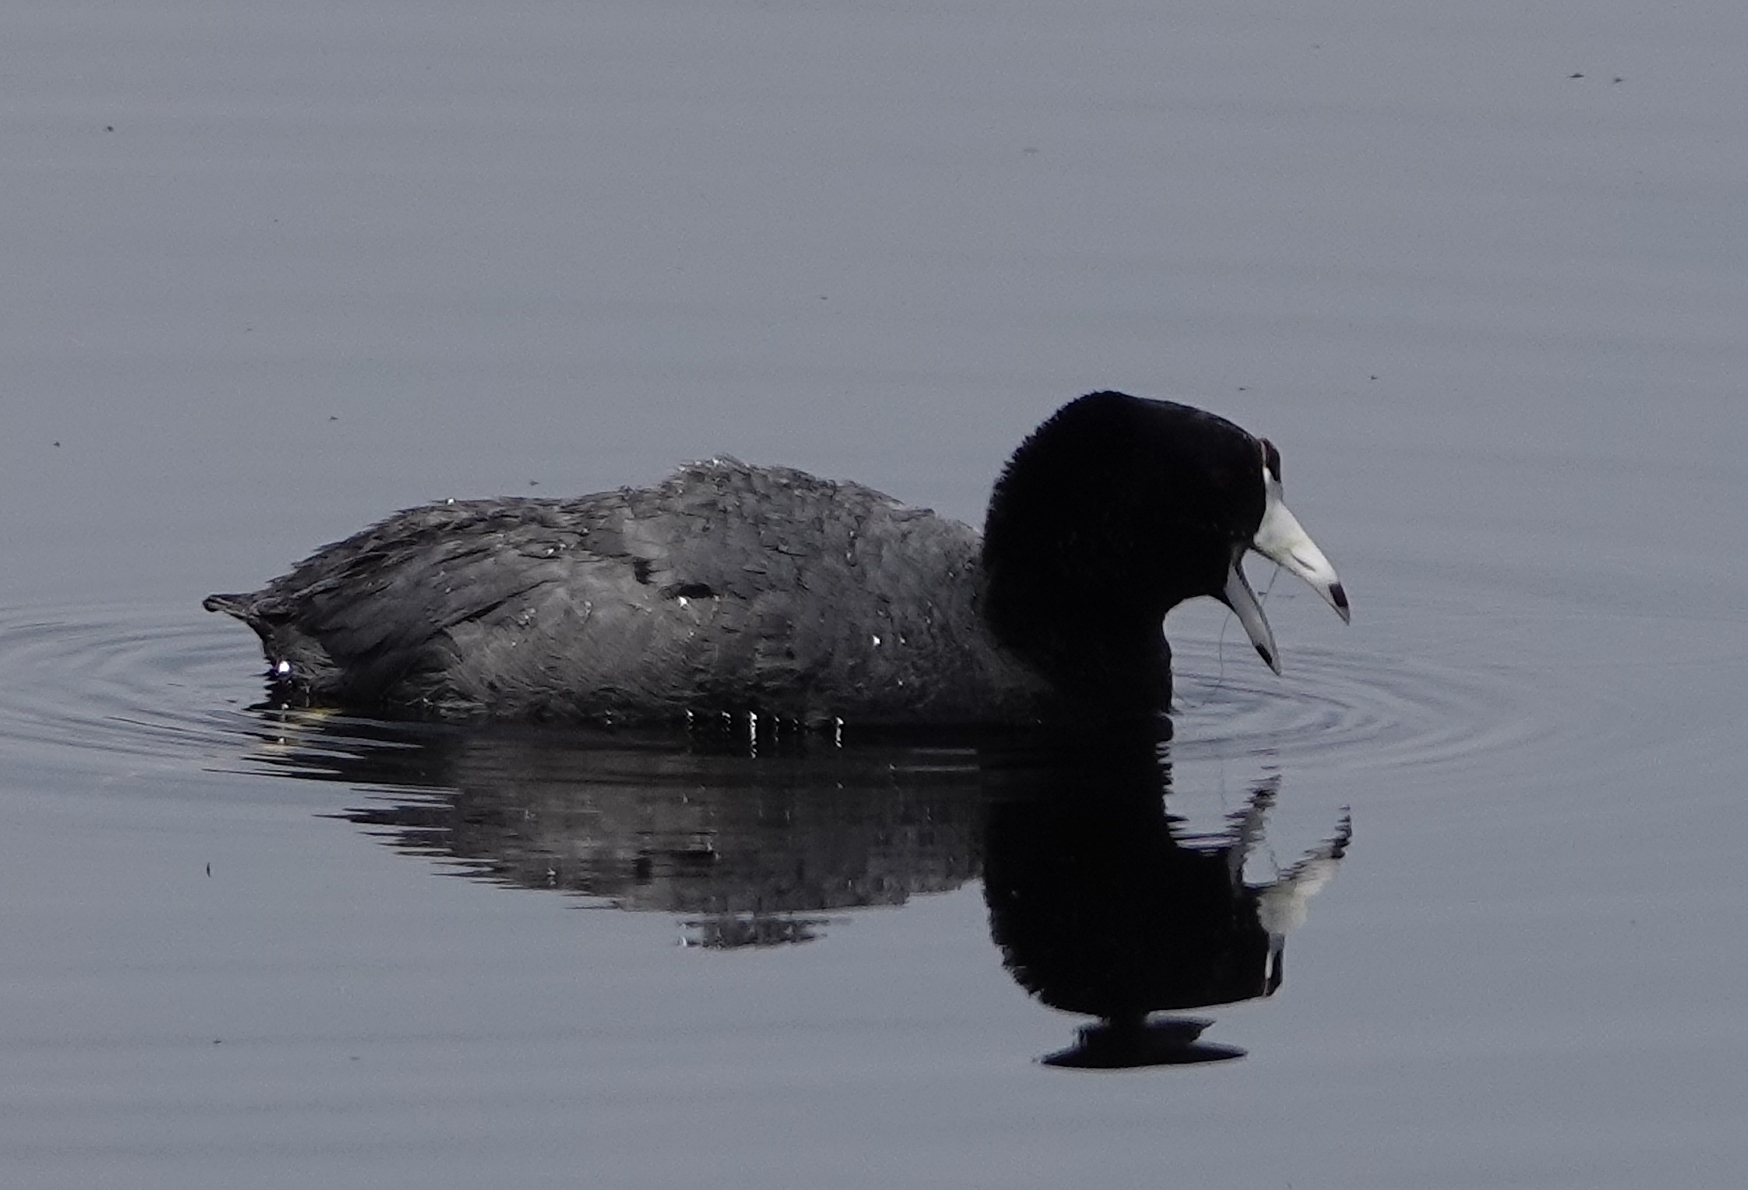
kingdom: Animalia
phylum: Chordata
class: Aves
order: Gruiformes
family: Rallidae
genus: Fulica
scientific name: Fulica americana
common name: American coot
